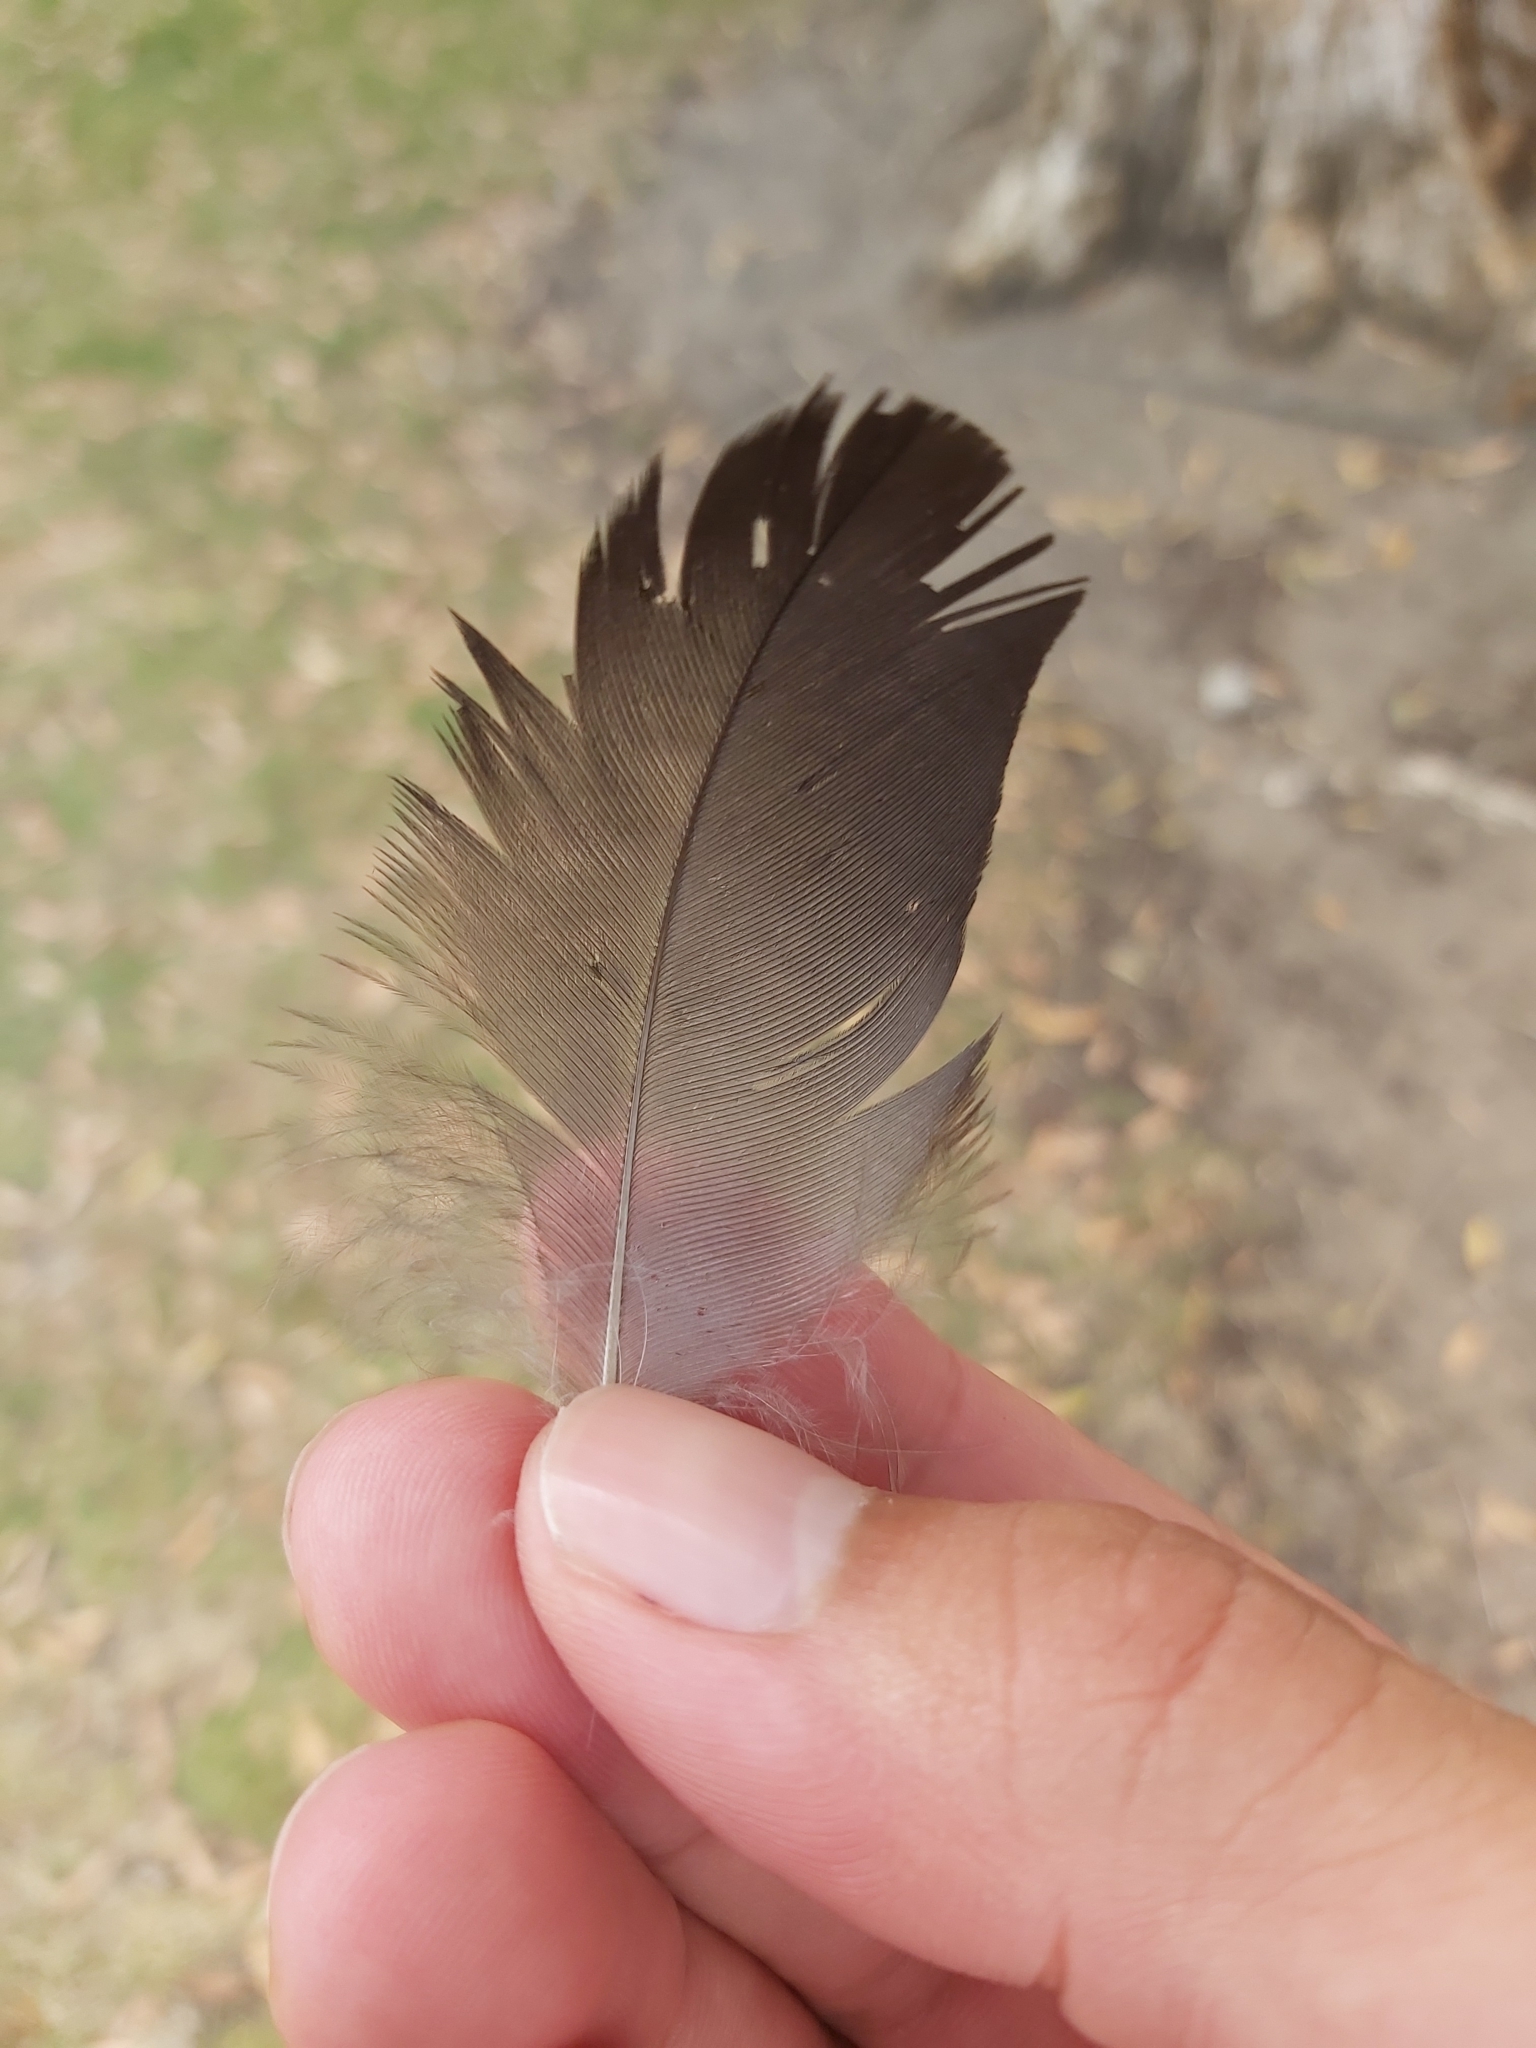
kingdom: Animalia
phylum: Chordata
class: Aves
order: Passeriformes
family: Corvidae
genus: Corvus
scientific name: Corvus coronoides
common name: Australian raven
